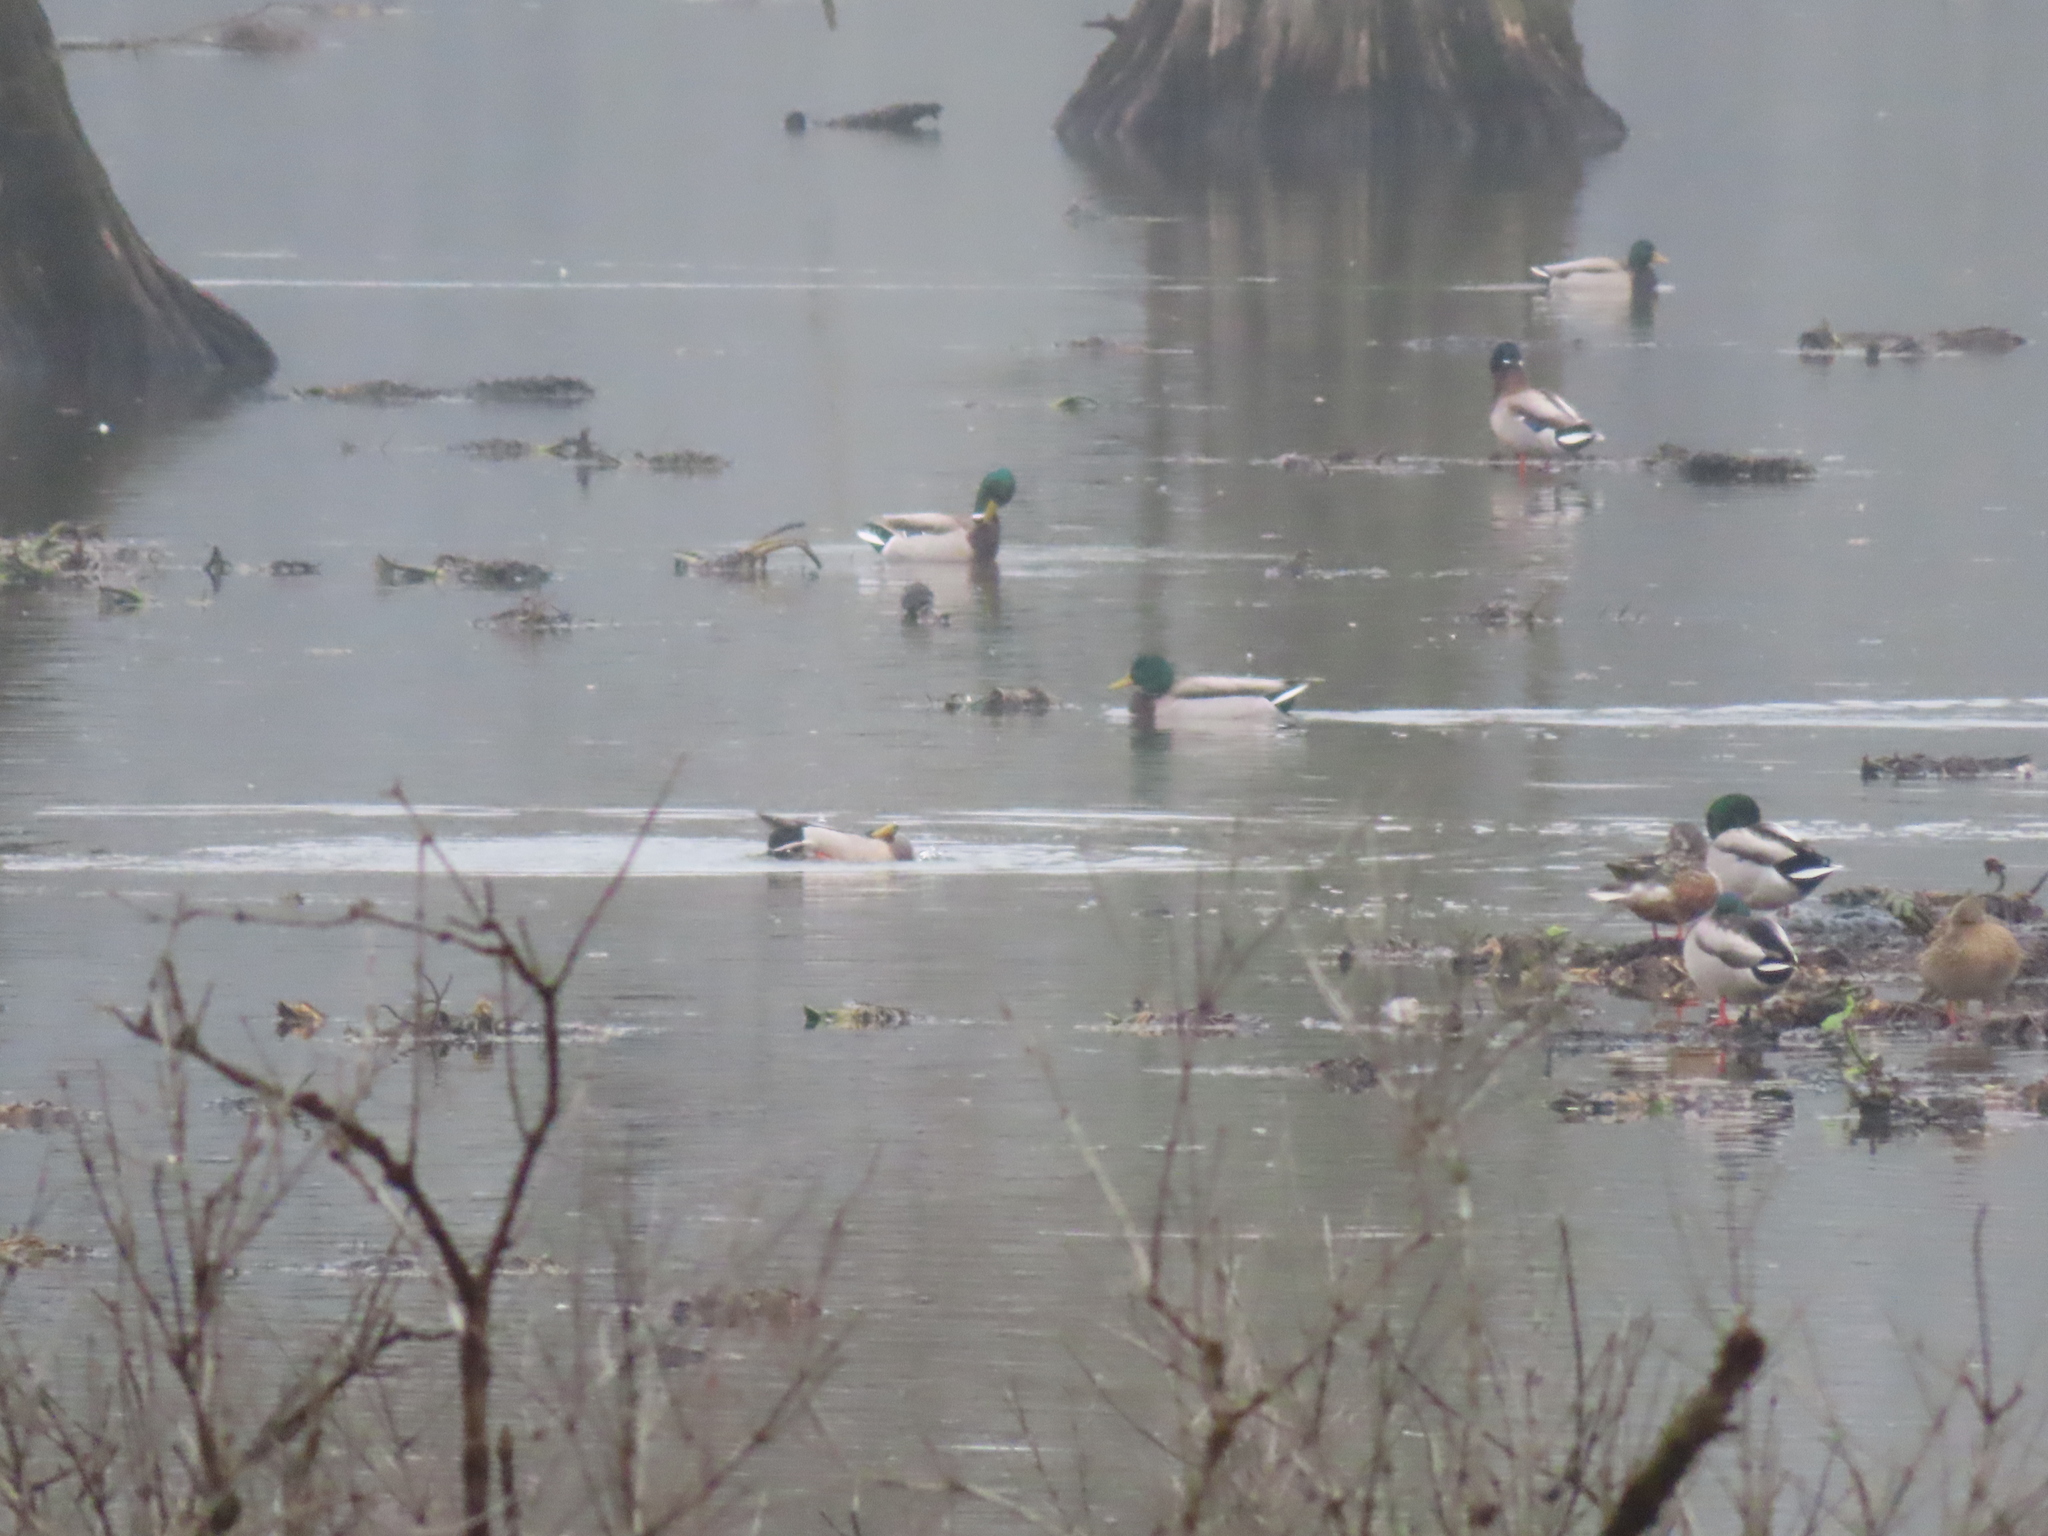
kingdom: Animalia
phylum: Chordata
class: Aves
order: Anseriformes
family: Anatidae
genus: Anas
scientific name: Anas platyrhynchos
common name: Mallard
